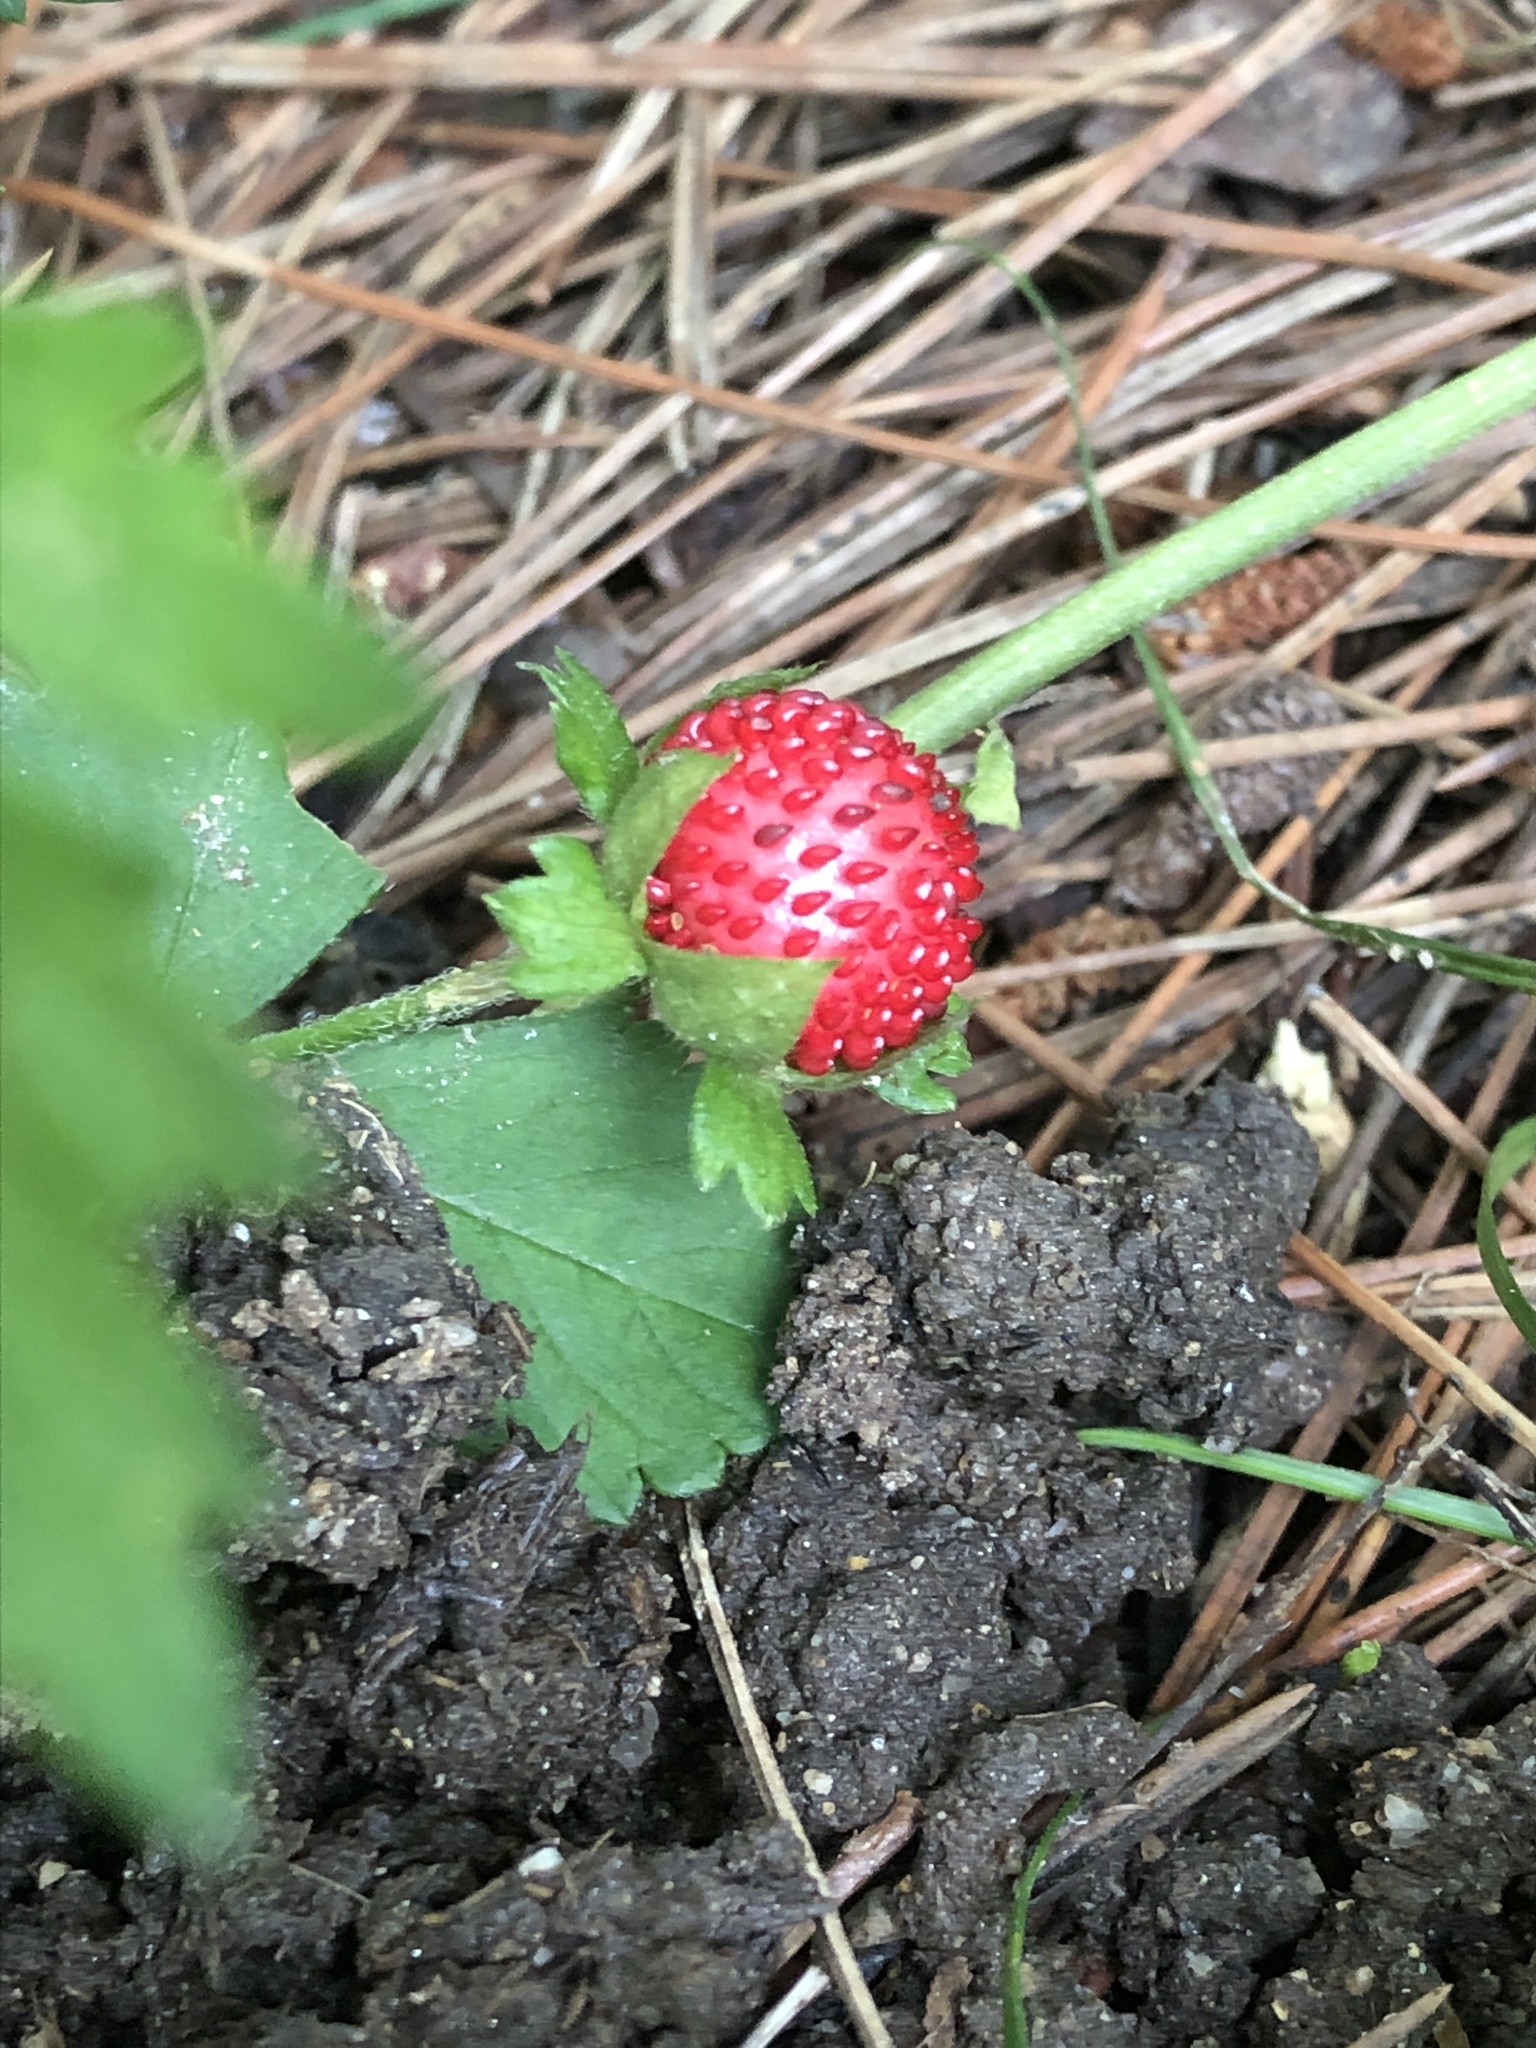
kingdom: Plantae
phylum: Tracheophyta
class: Magnoliopsida
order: Rosales
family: Rosaceae
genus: Potentilla
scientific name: Potentilla indica
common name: Yellow-flowered strawberry
